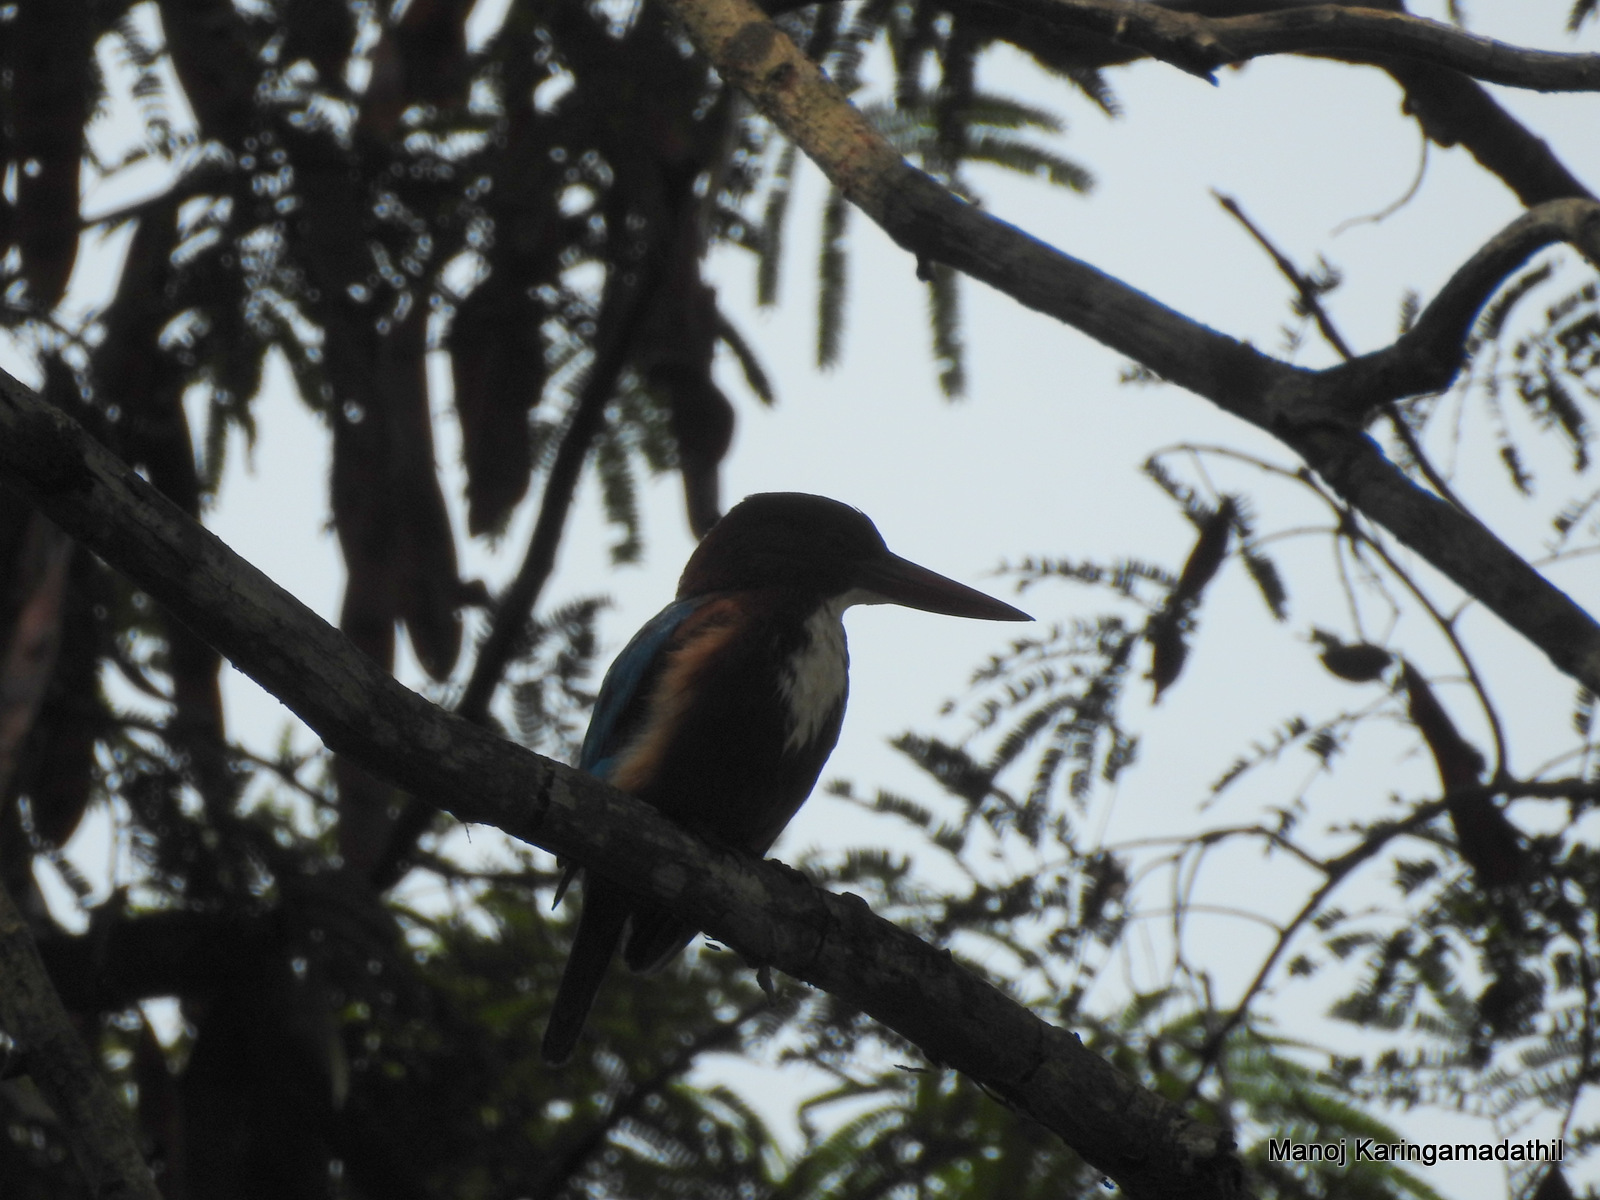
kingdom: Animalia
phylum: Chordata
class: Aves
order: Coraciiformes
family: Alcedinidae
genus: Halcyon
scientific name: Halcyon smyrnensis
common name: White-throated kingfisher
